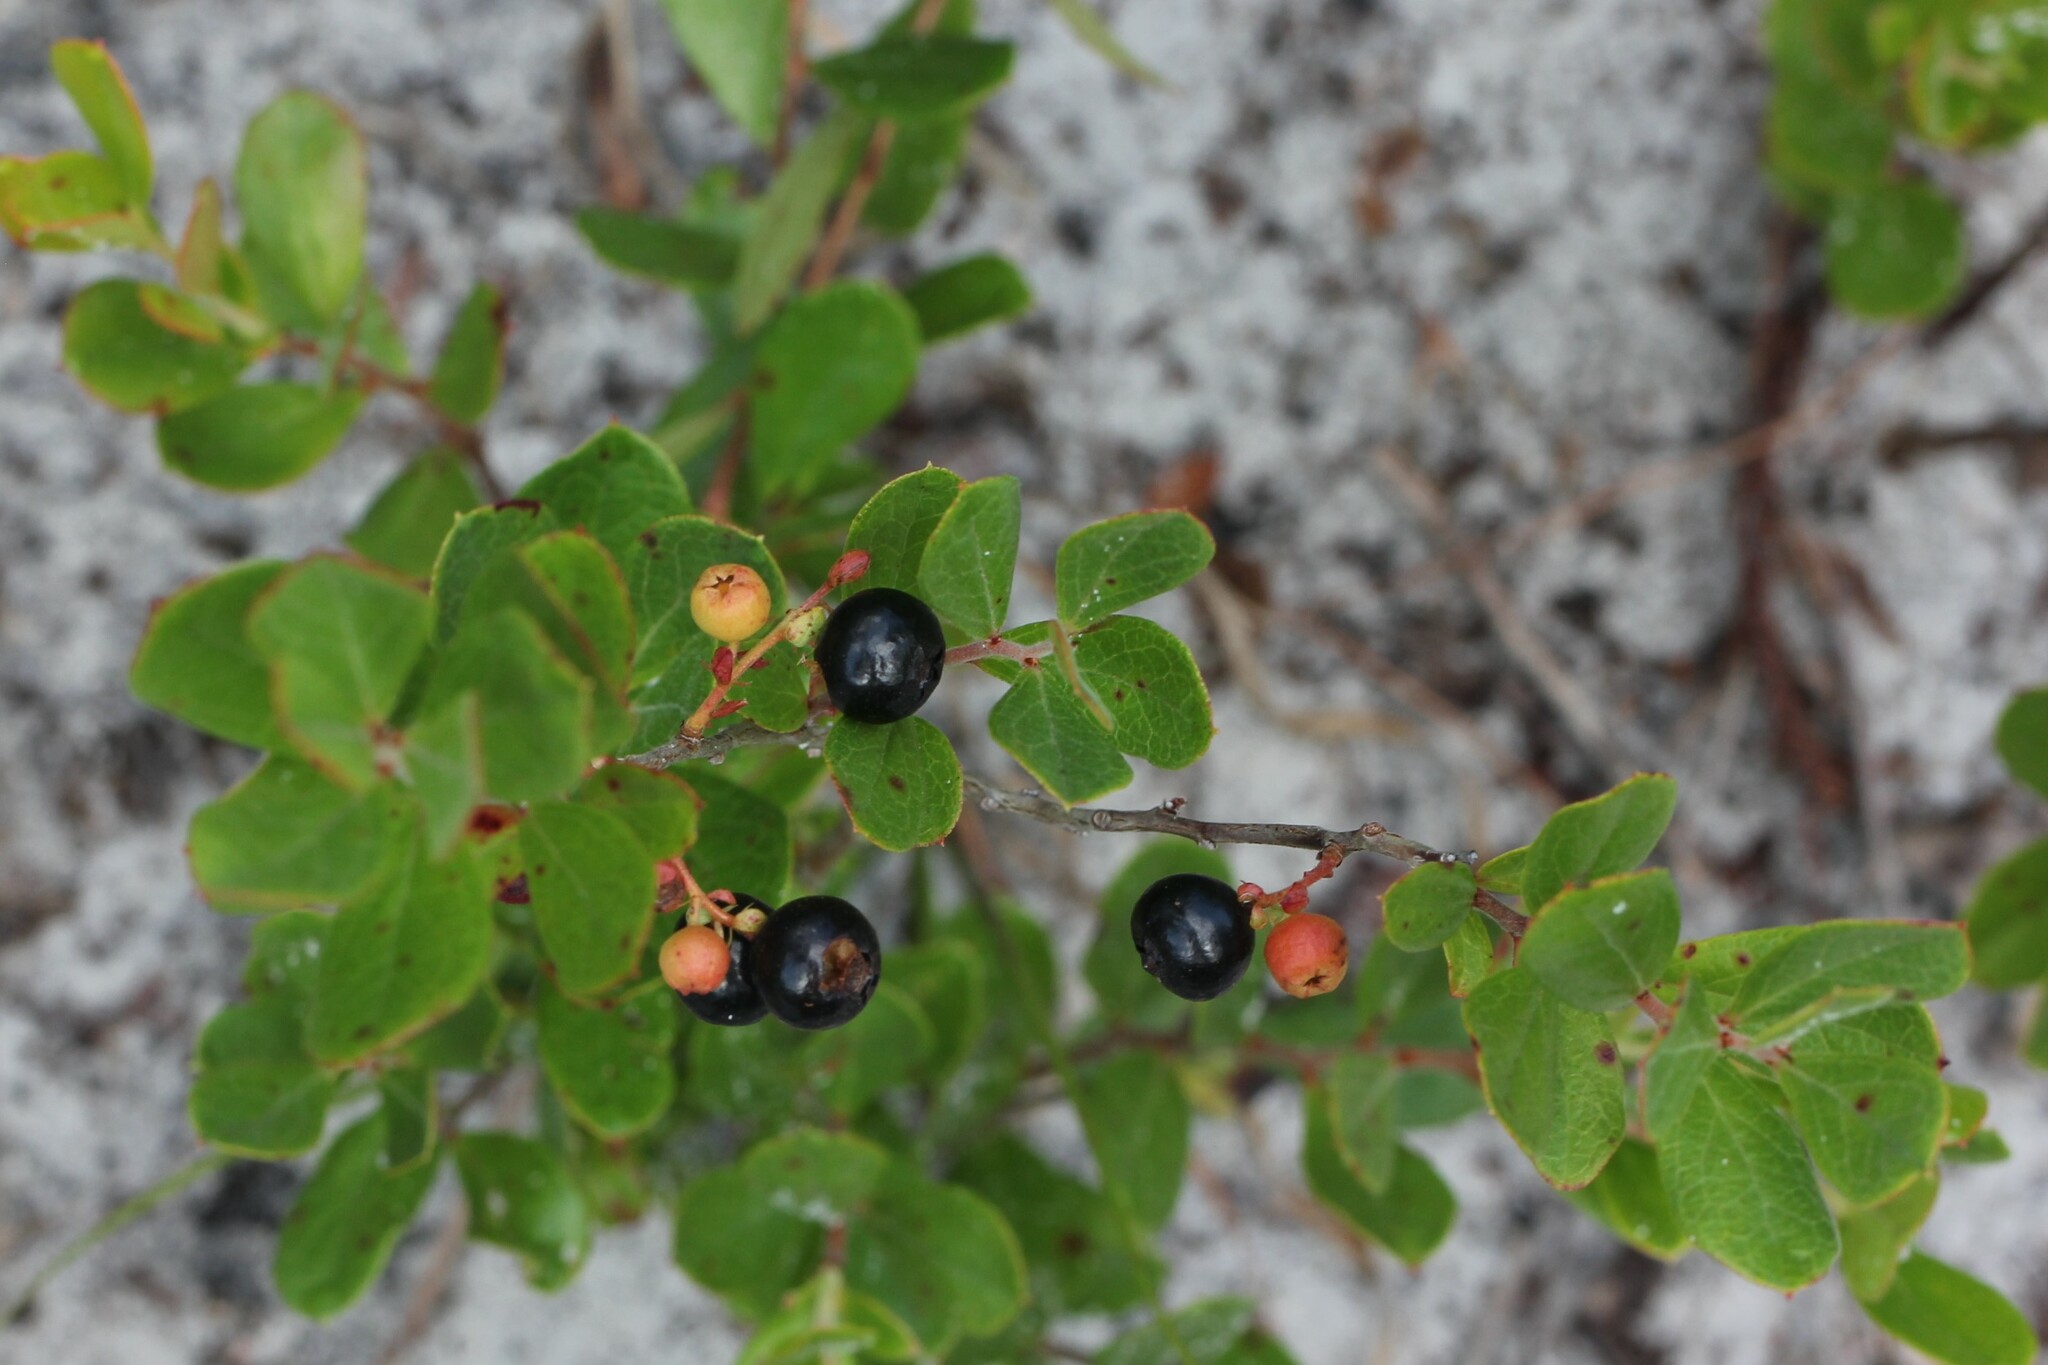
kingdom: Plantae
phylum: Tracheophyta
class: Magnoliopsida
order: Ericales
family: Ericaceae
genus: Gaylussacia
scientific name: Gaylussacia dumosa
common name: Dwarf huckleberry
